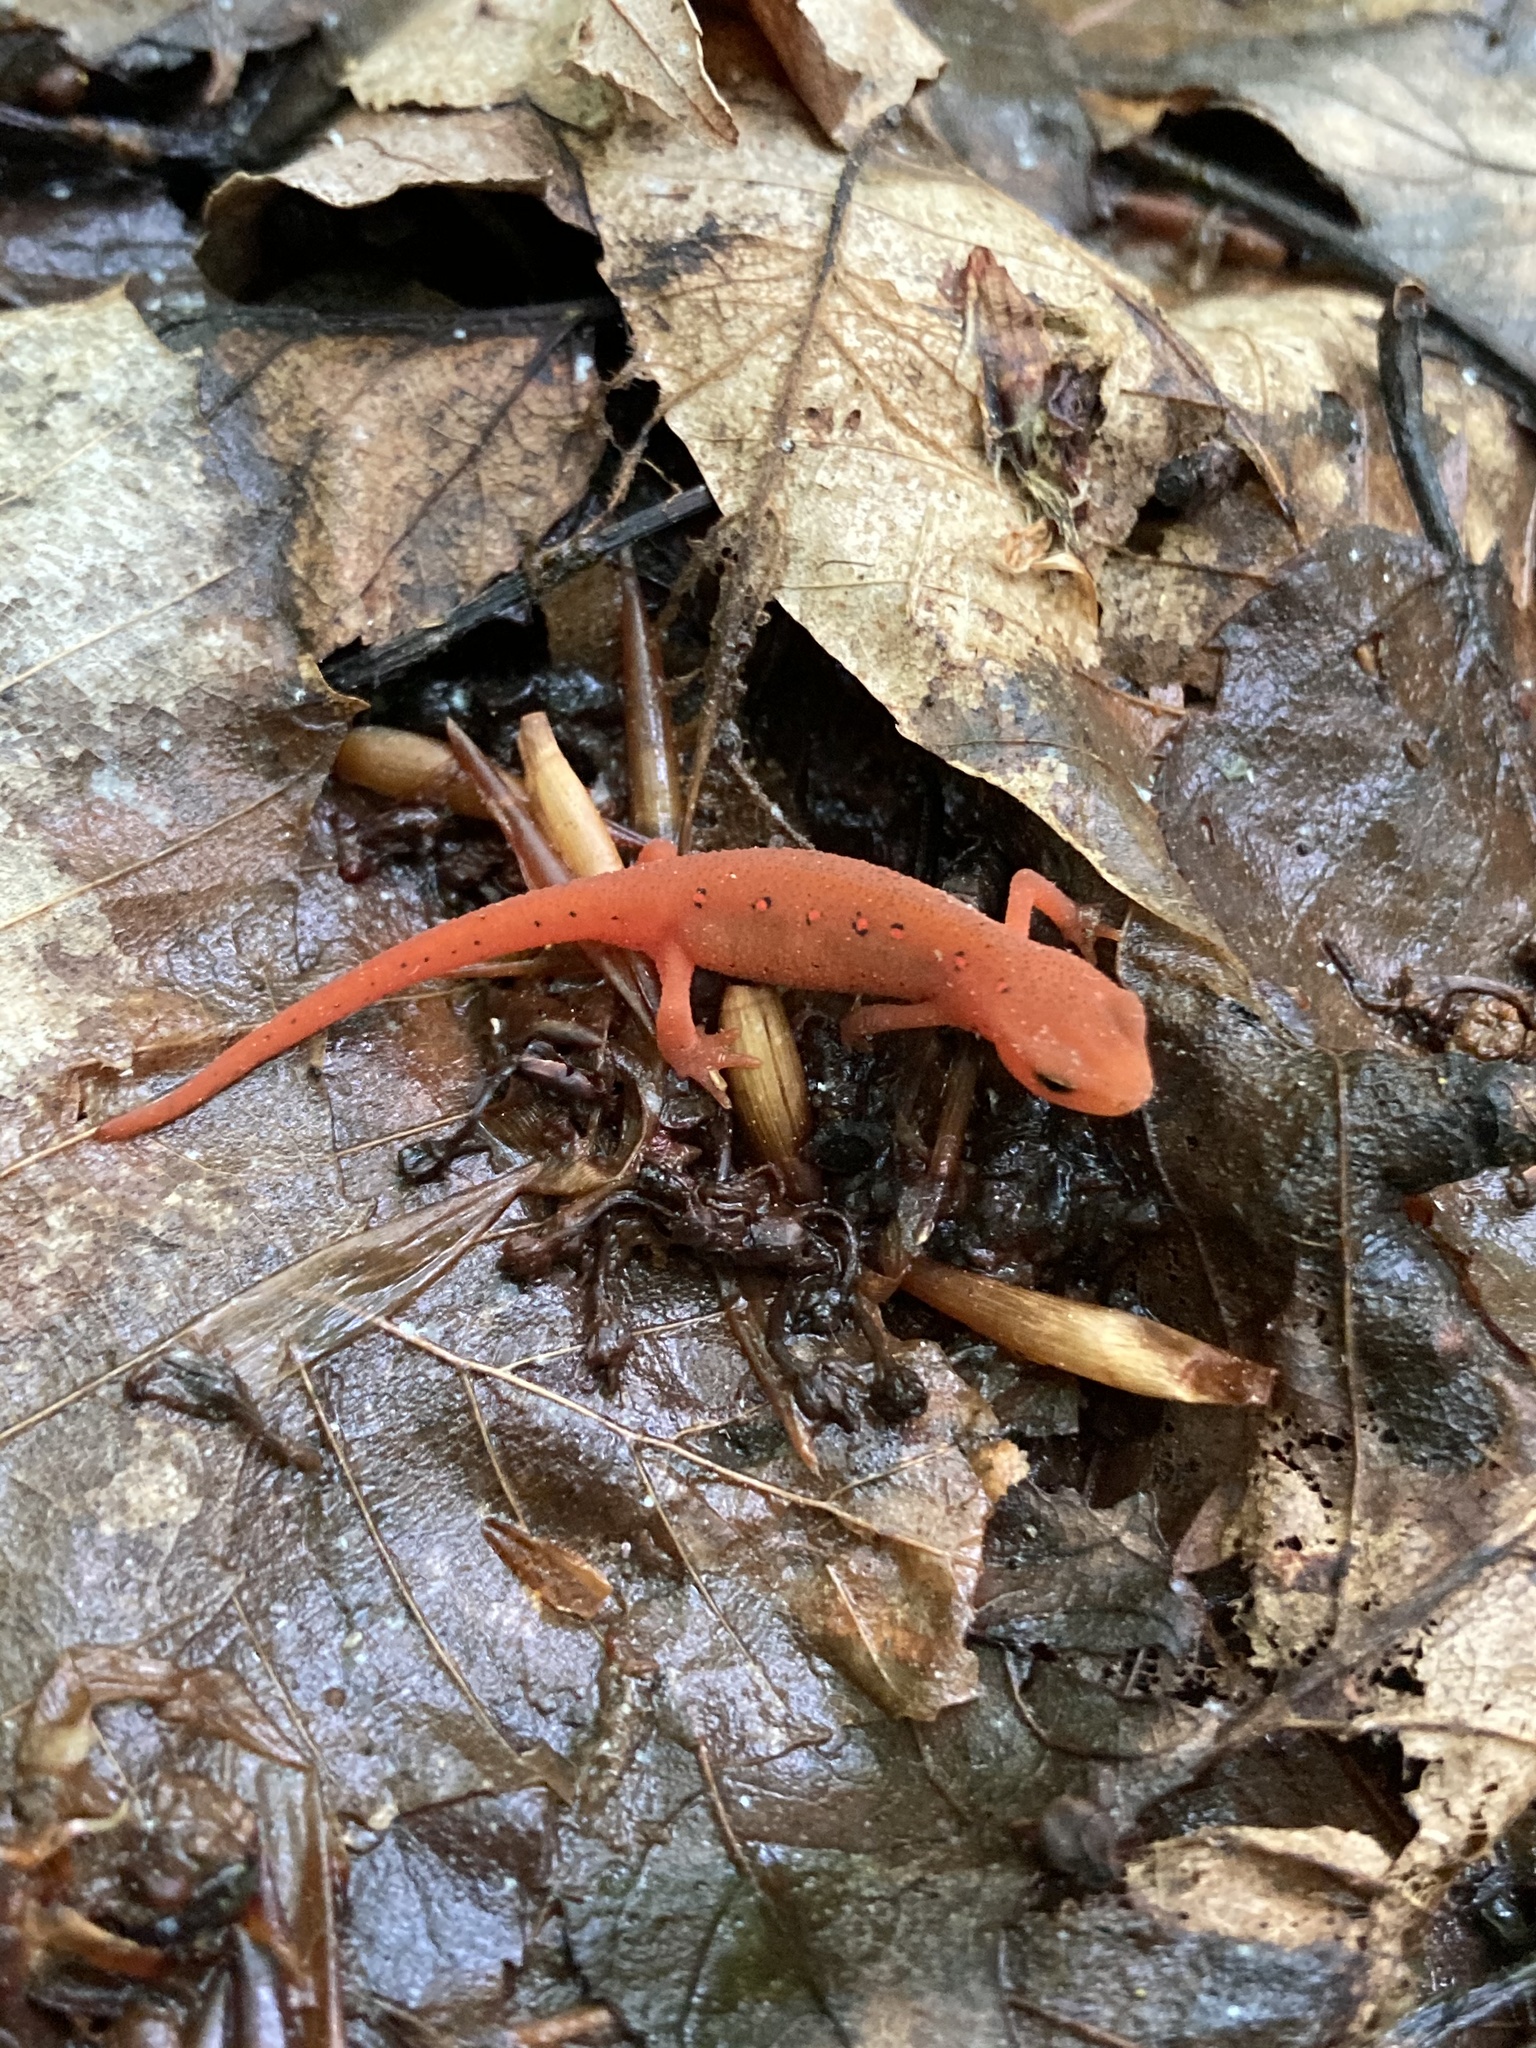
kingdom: Animalia
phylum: Chordata
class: Amphibia
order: Caudata
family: Salamandridae
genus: Notophthalmus
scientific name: Notophthalmus viridescens
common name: Eastern newt
